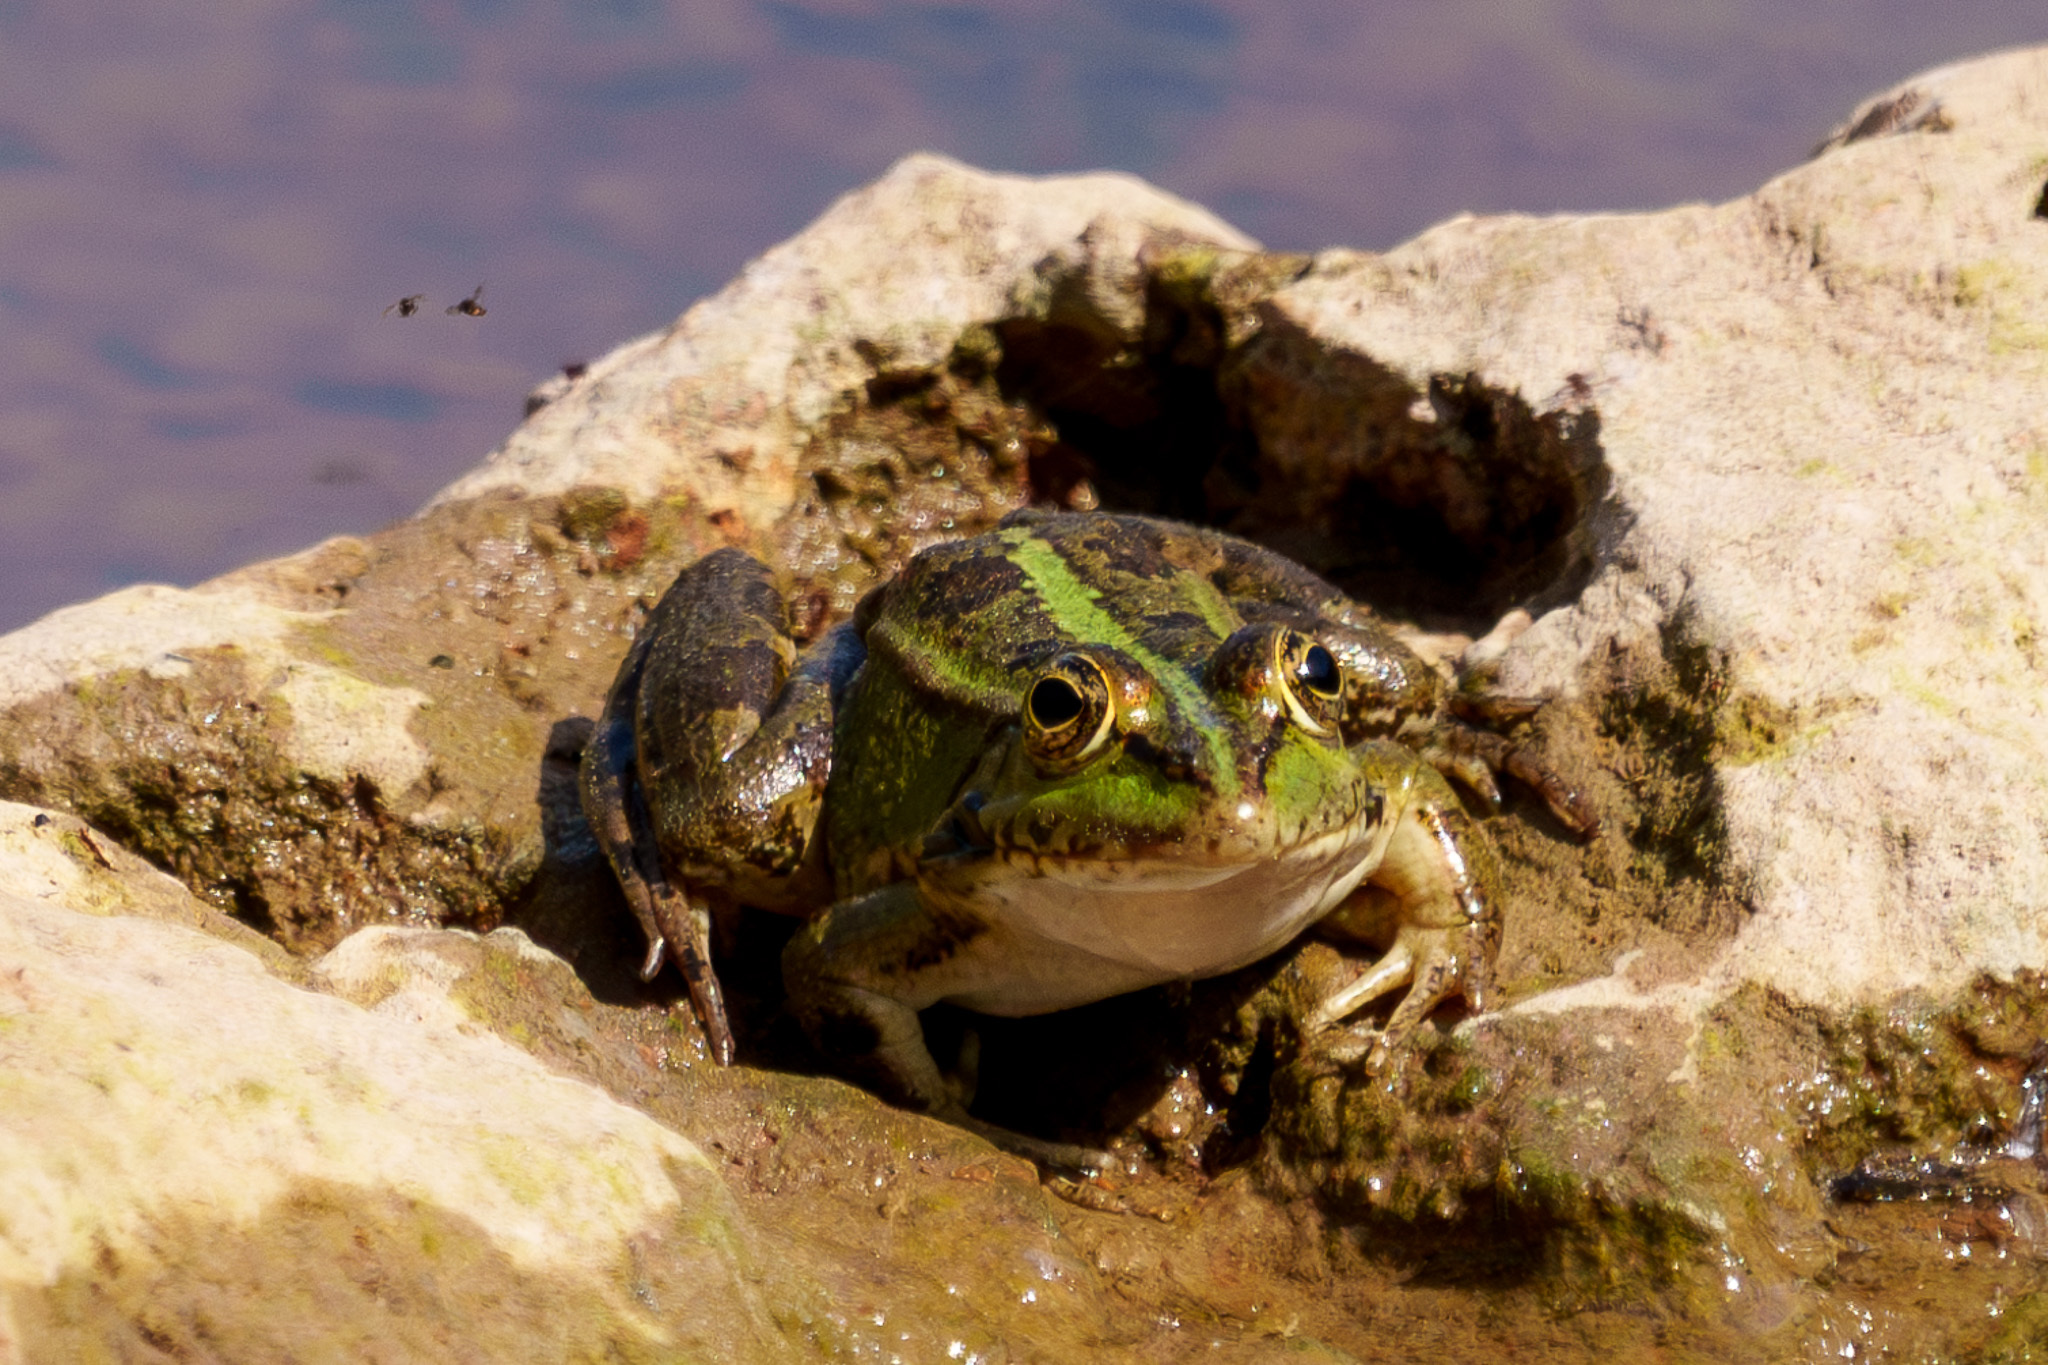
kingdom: Animalia
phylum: Chordata
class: Amphibia
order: Anura
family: Ranidae
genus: Pelophylax
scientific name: Pelophylax ridibundus
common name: Marsh frog
